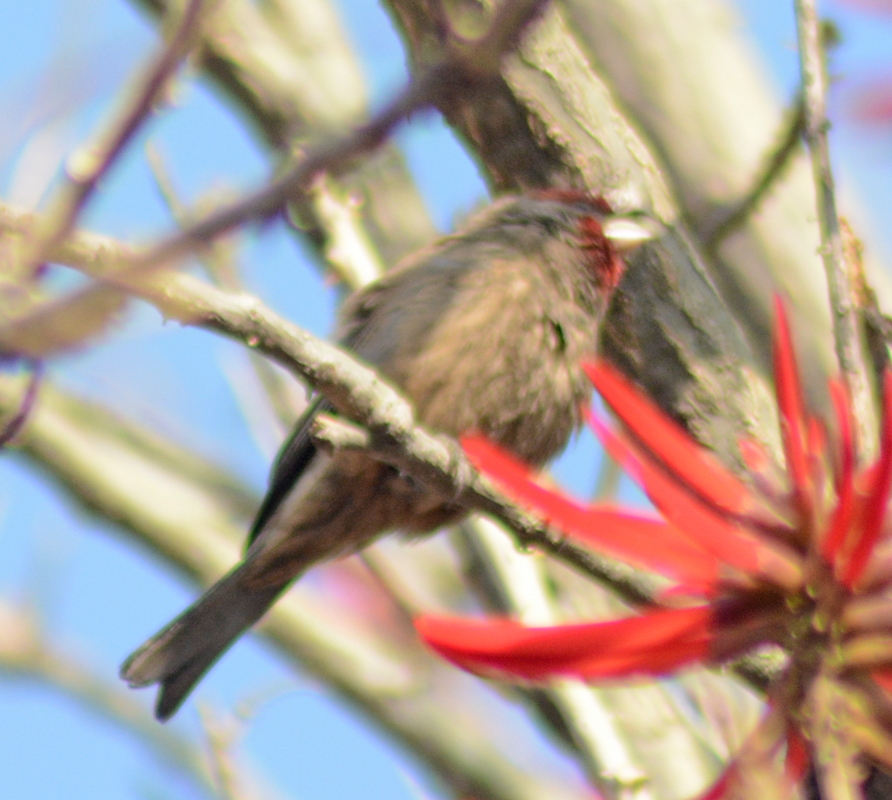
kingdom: Animalia
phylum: Chordata
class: Aves
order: Passeriformes
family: Fringillidae
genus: Haemorhous
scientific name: Haemorhous mexicanus
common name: House finch
